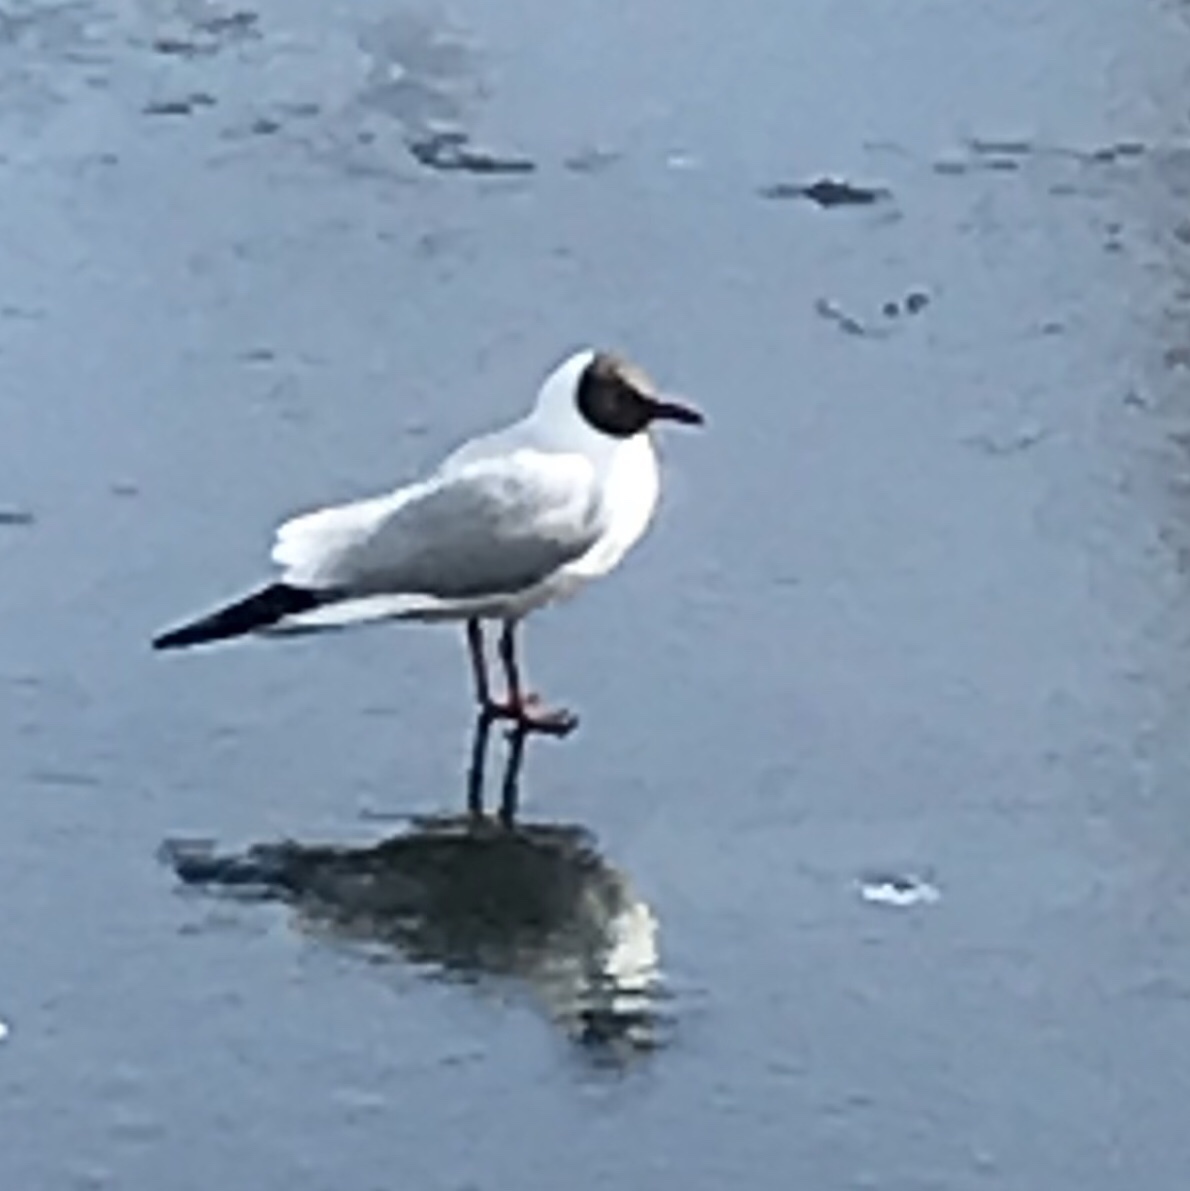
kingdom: Animalia
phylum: Chordata
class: Aves
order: Charadriiformes
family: Laridae
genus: Chroicocephalus
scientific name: Chroicocephalus ridibundus
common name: Black-headed gull
